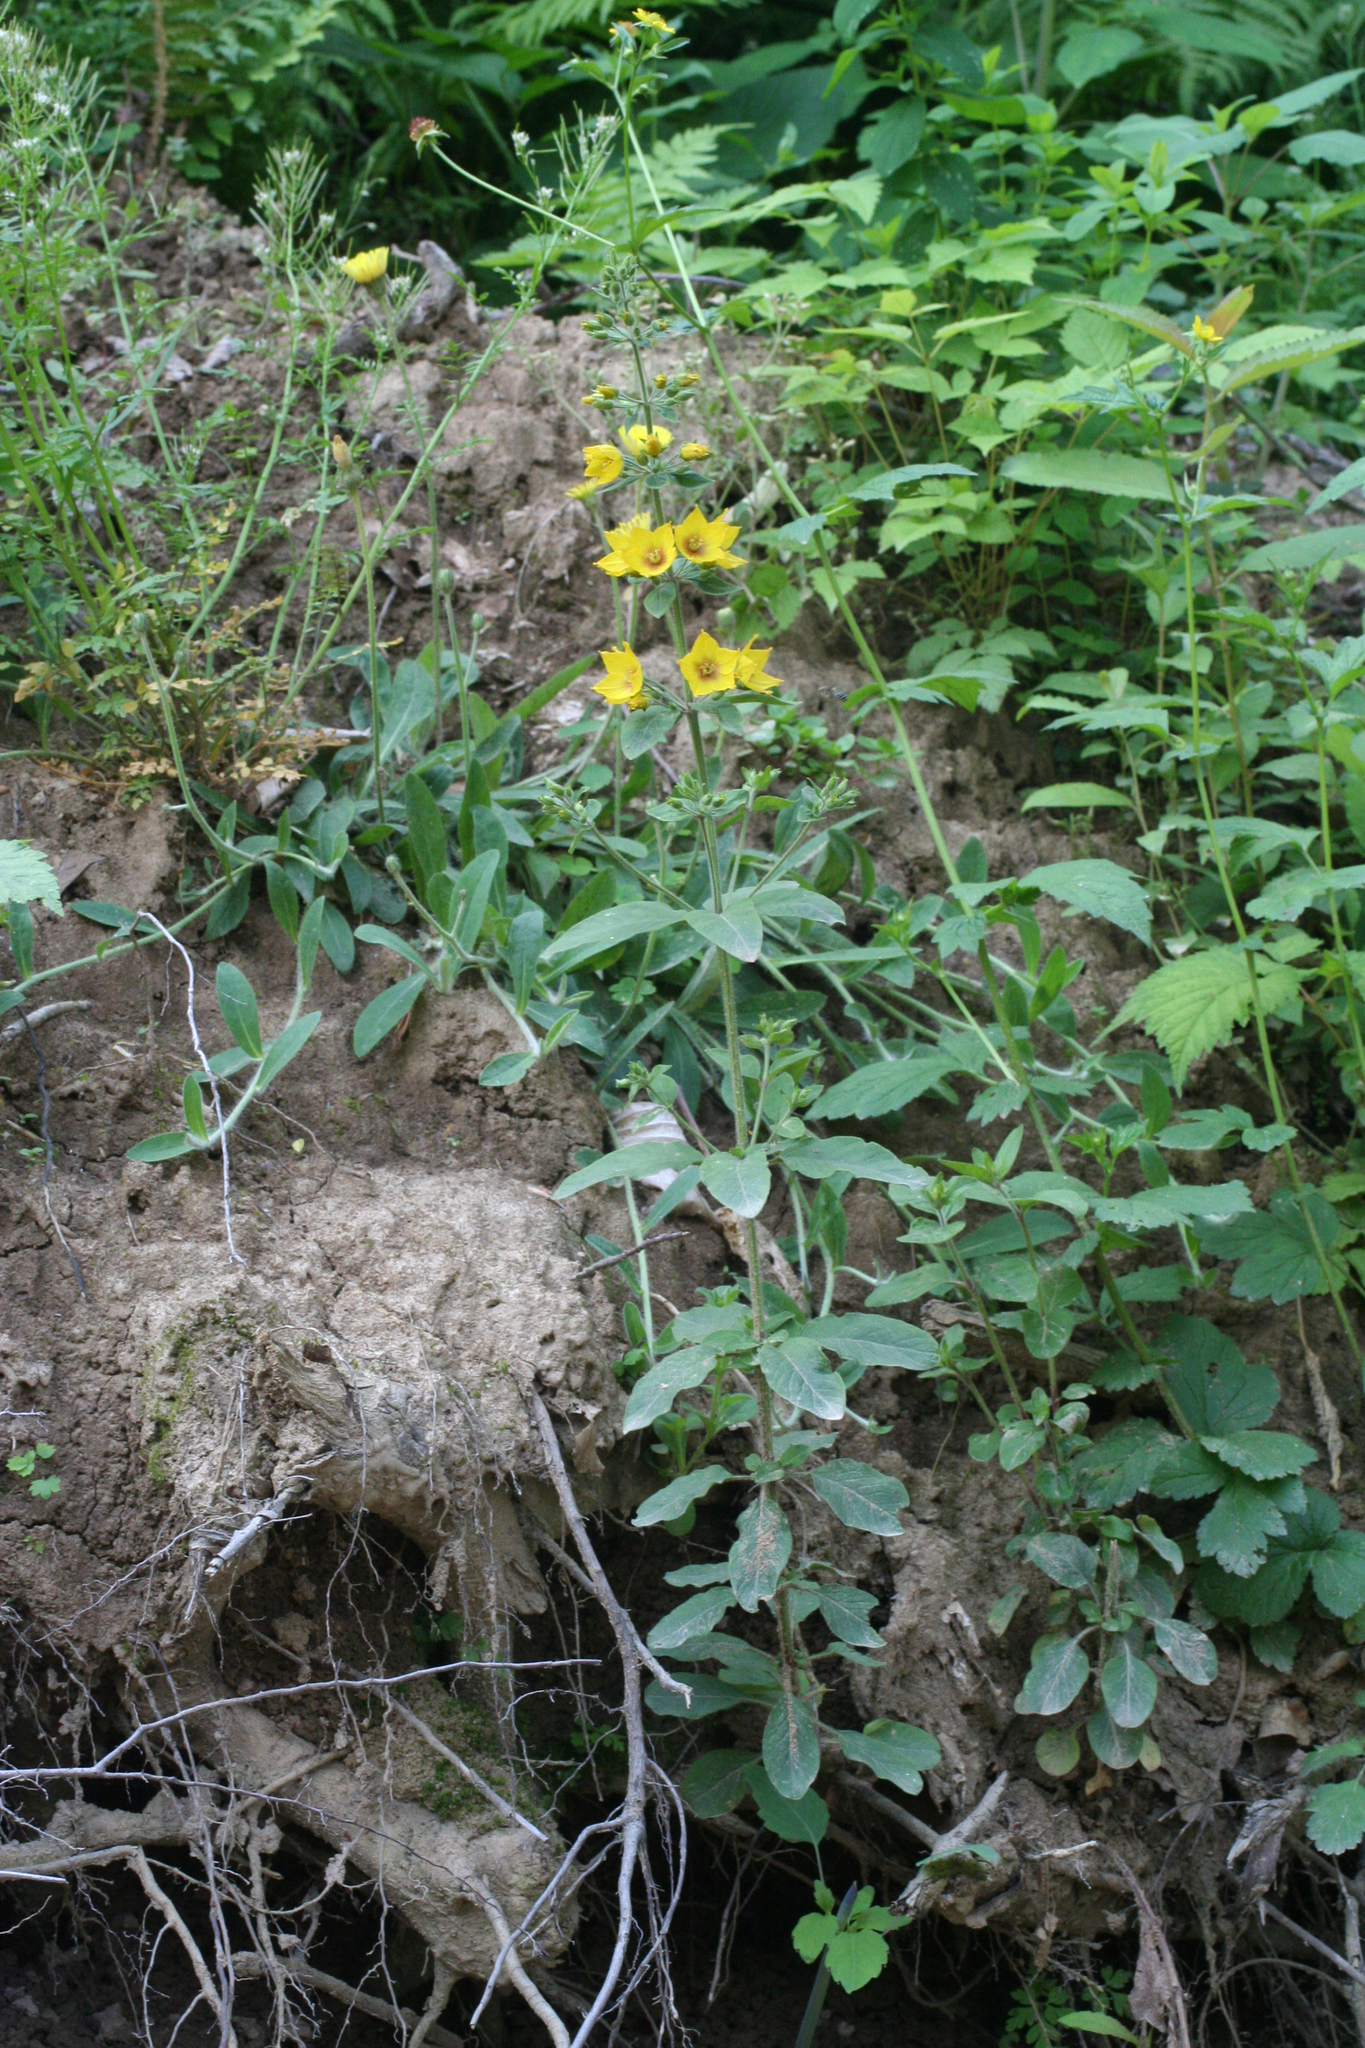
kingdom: Plantae
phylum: Tracheophyta
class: Magnoliopsida
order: Ericales
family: Primulaceae
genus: Lysimachia
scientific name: Lysimachia verticillaris
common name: Yellow loosestrife
